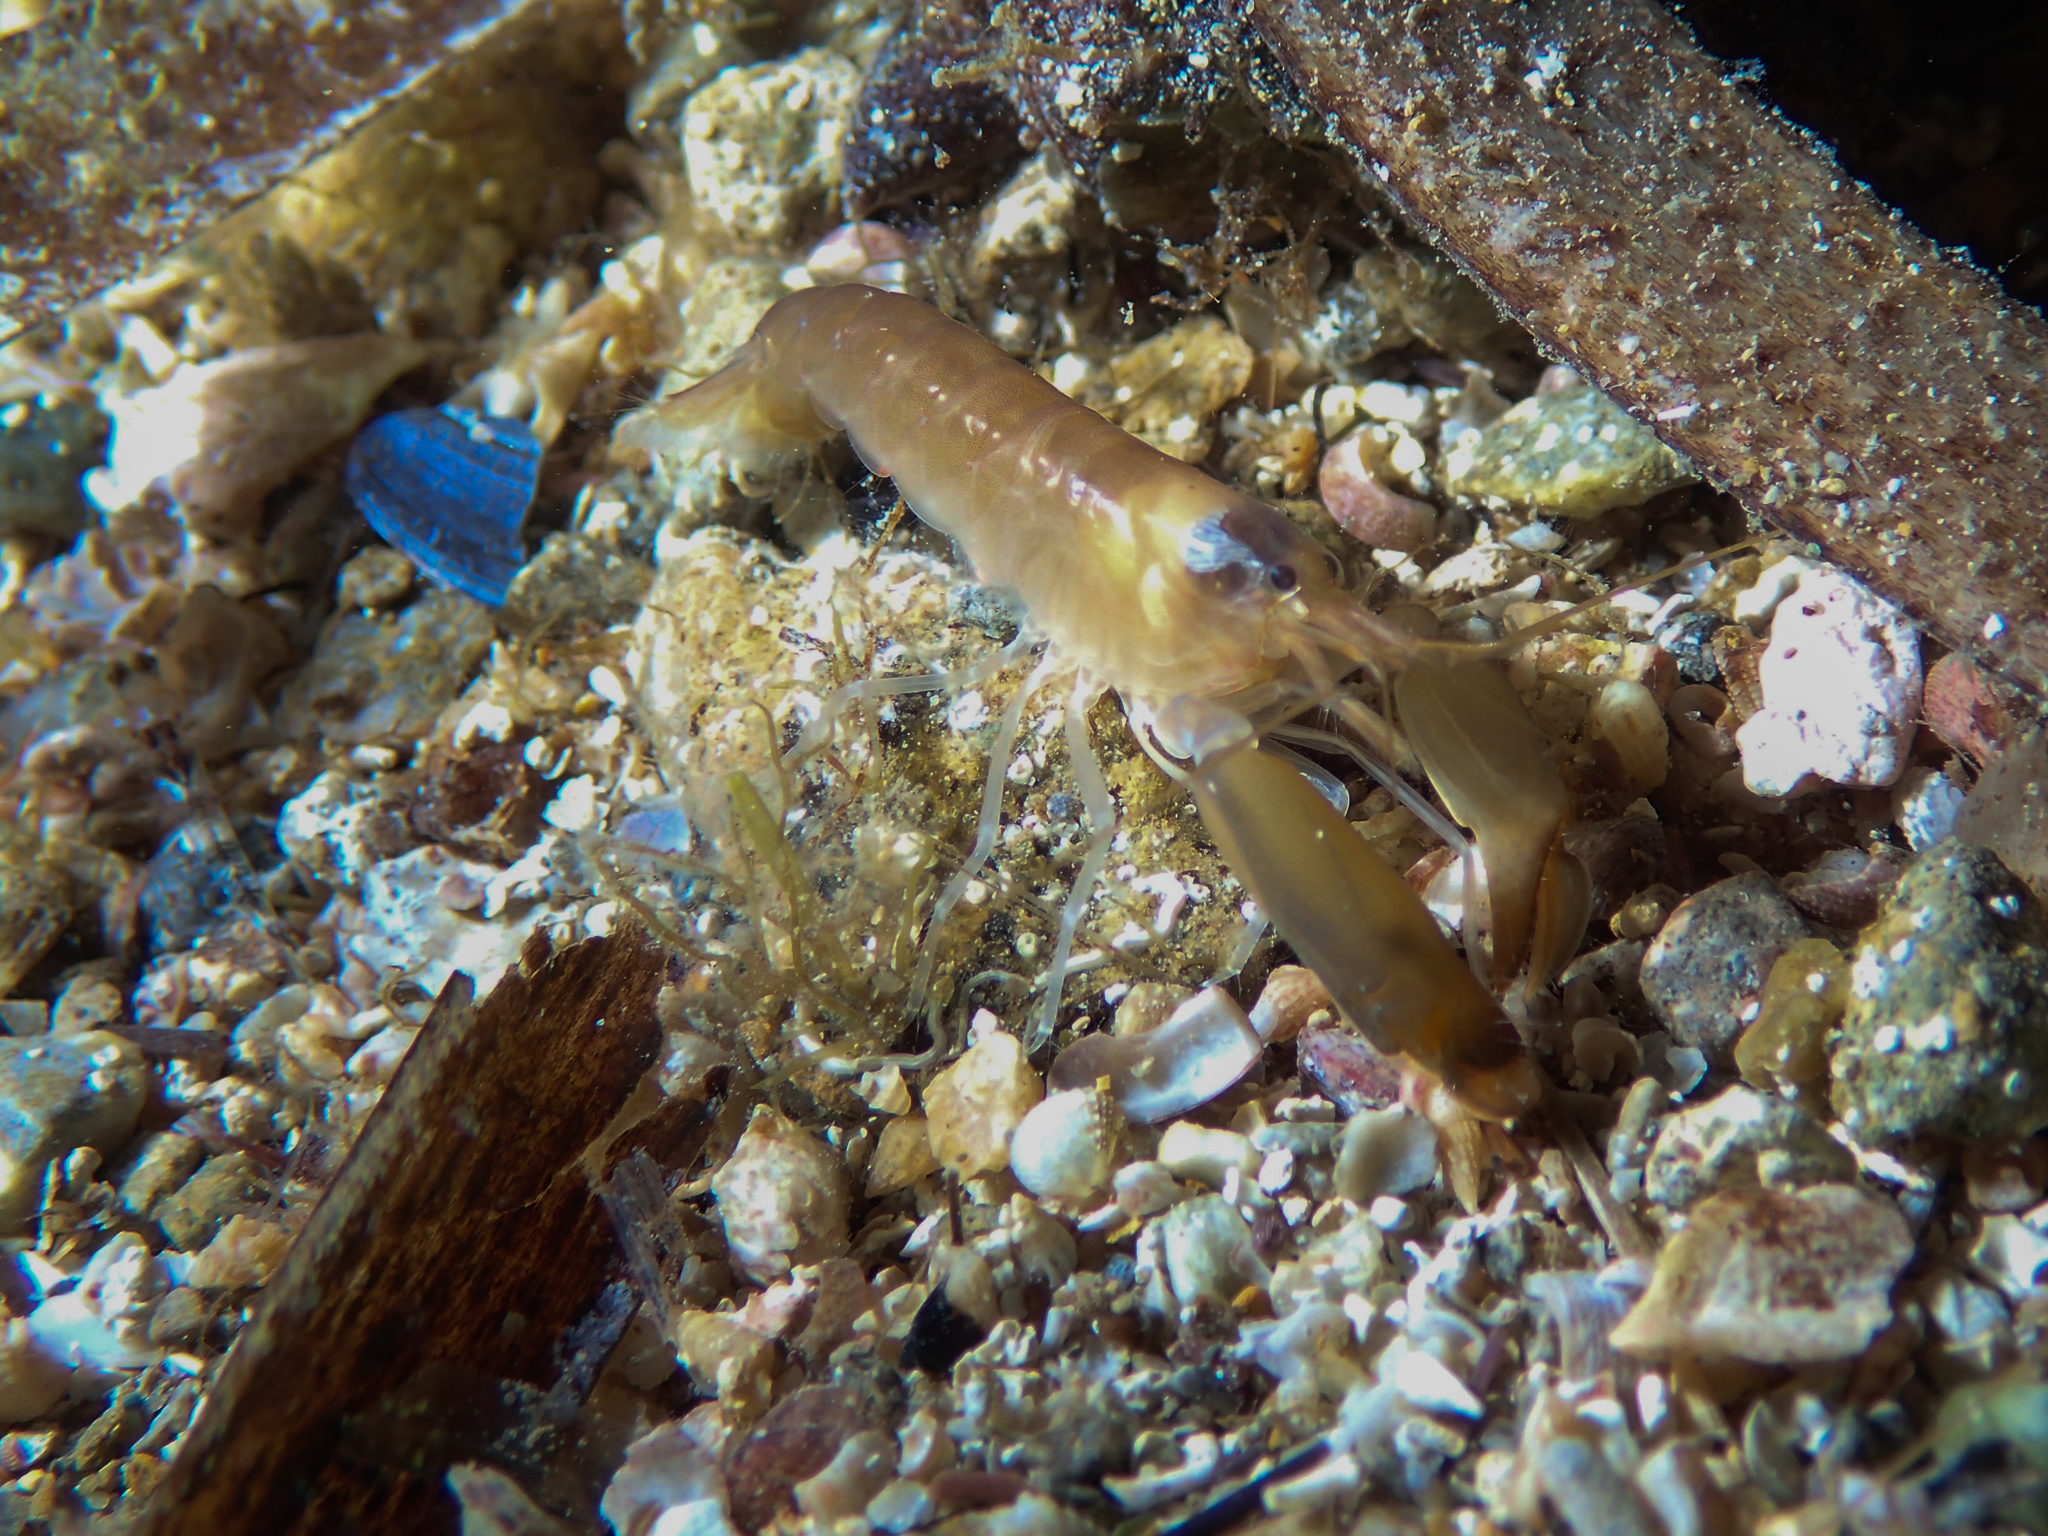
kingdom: Animalia
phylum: Arthropoda
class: Malacostraca
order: Decapoda
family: Alpheidae
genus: Alpheus
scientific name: Alpheus macrocheles
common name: European big-claw snapping prawn
